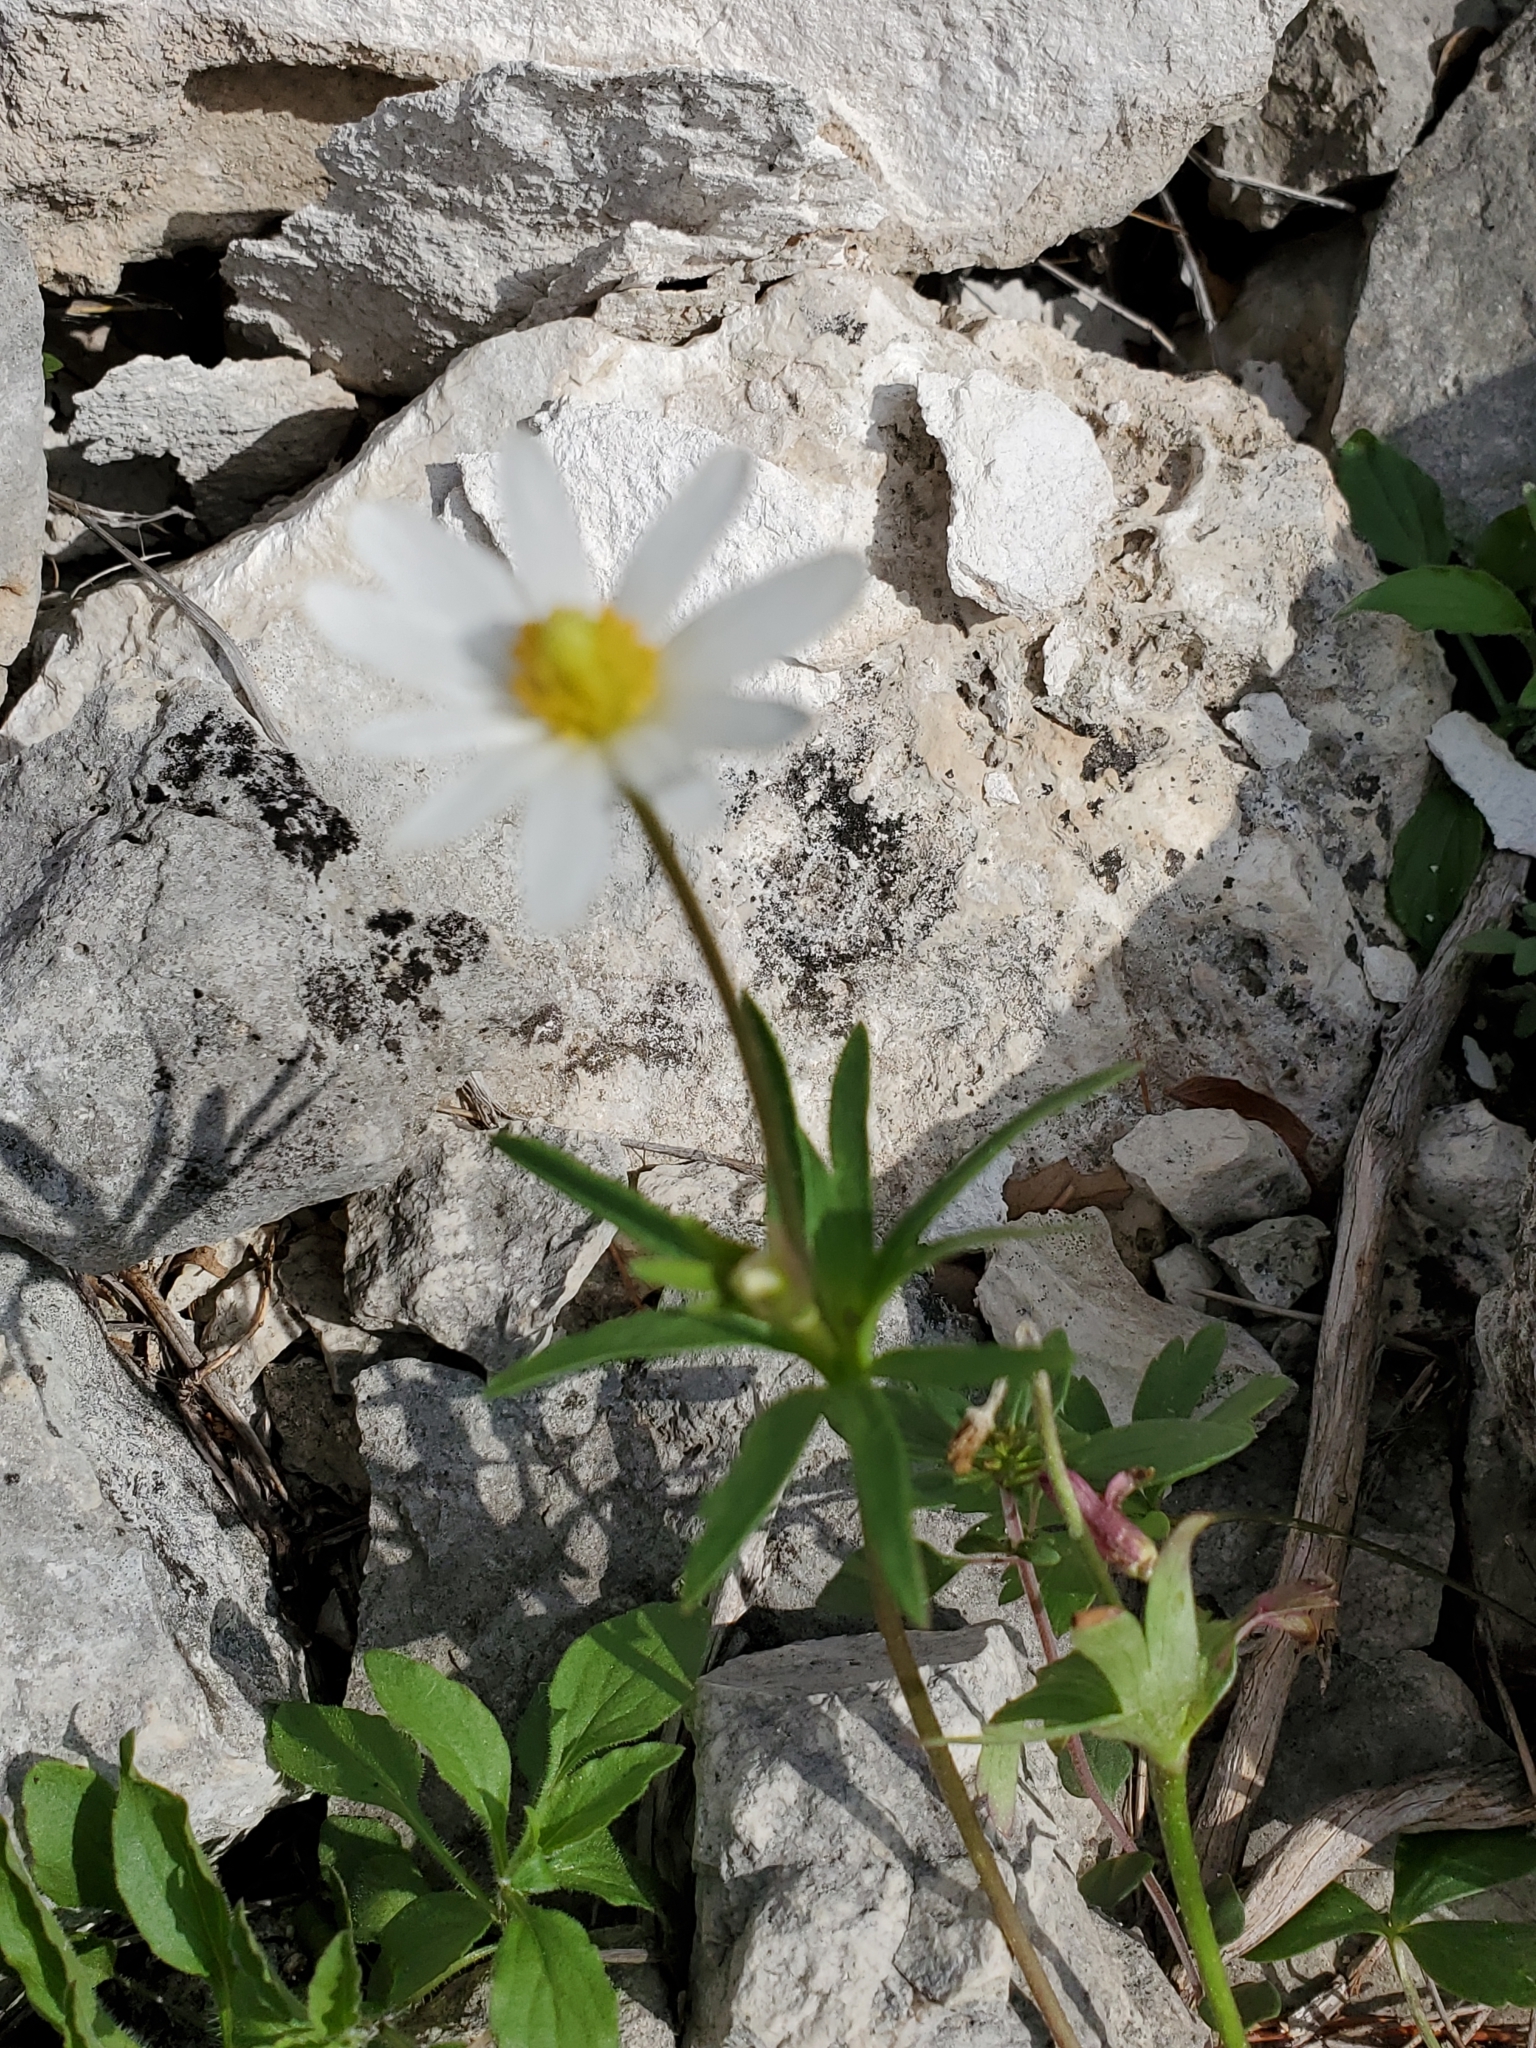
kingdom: Plantae
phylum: Tracheophyta
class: Magnoliopsida
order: Ranunculales
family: Ranunculaceae
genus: Anemone
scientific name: Anemone edwardsiana
